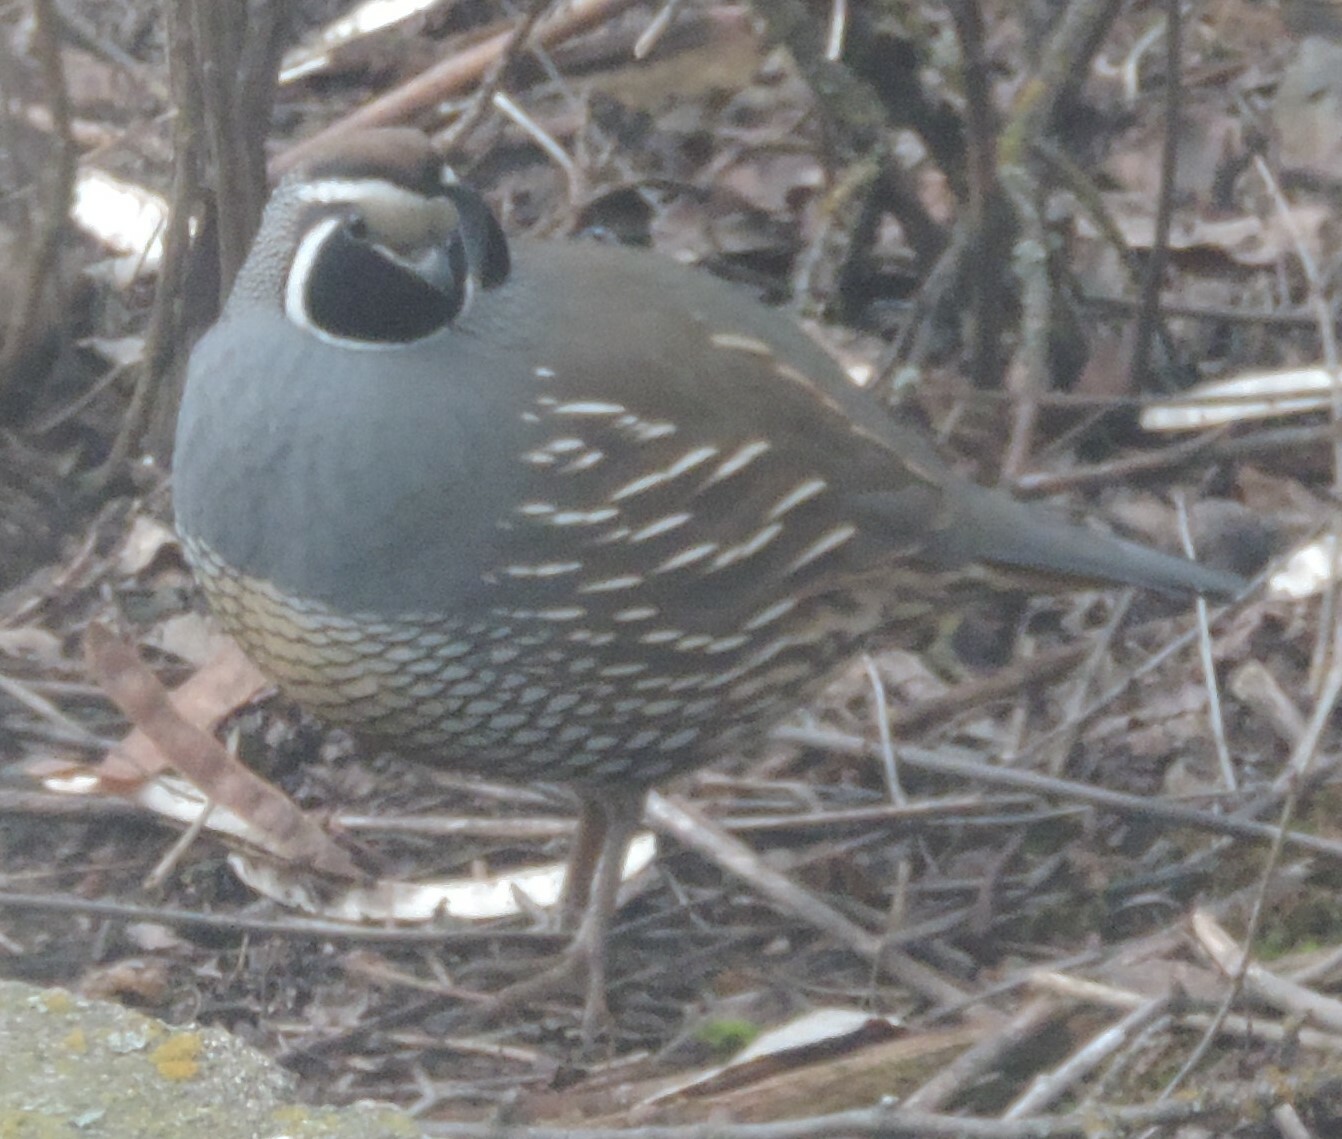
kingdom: Animalia
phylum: Chordata
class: Aves
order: Galliformes
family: Odontophoridae
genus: Callipepla
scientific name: Callipepla californica
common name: California quail
